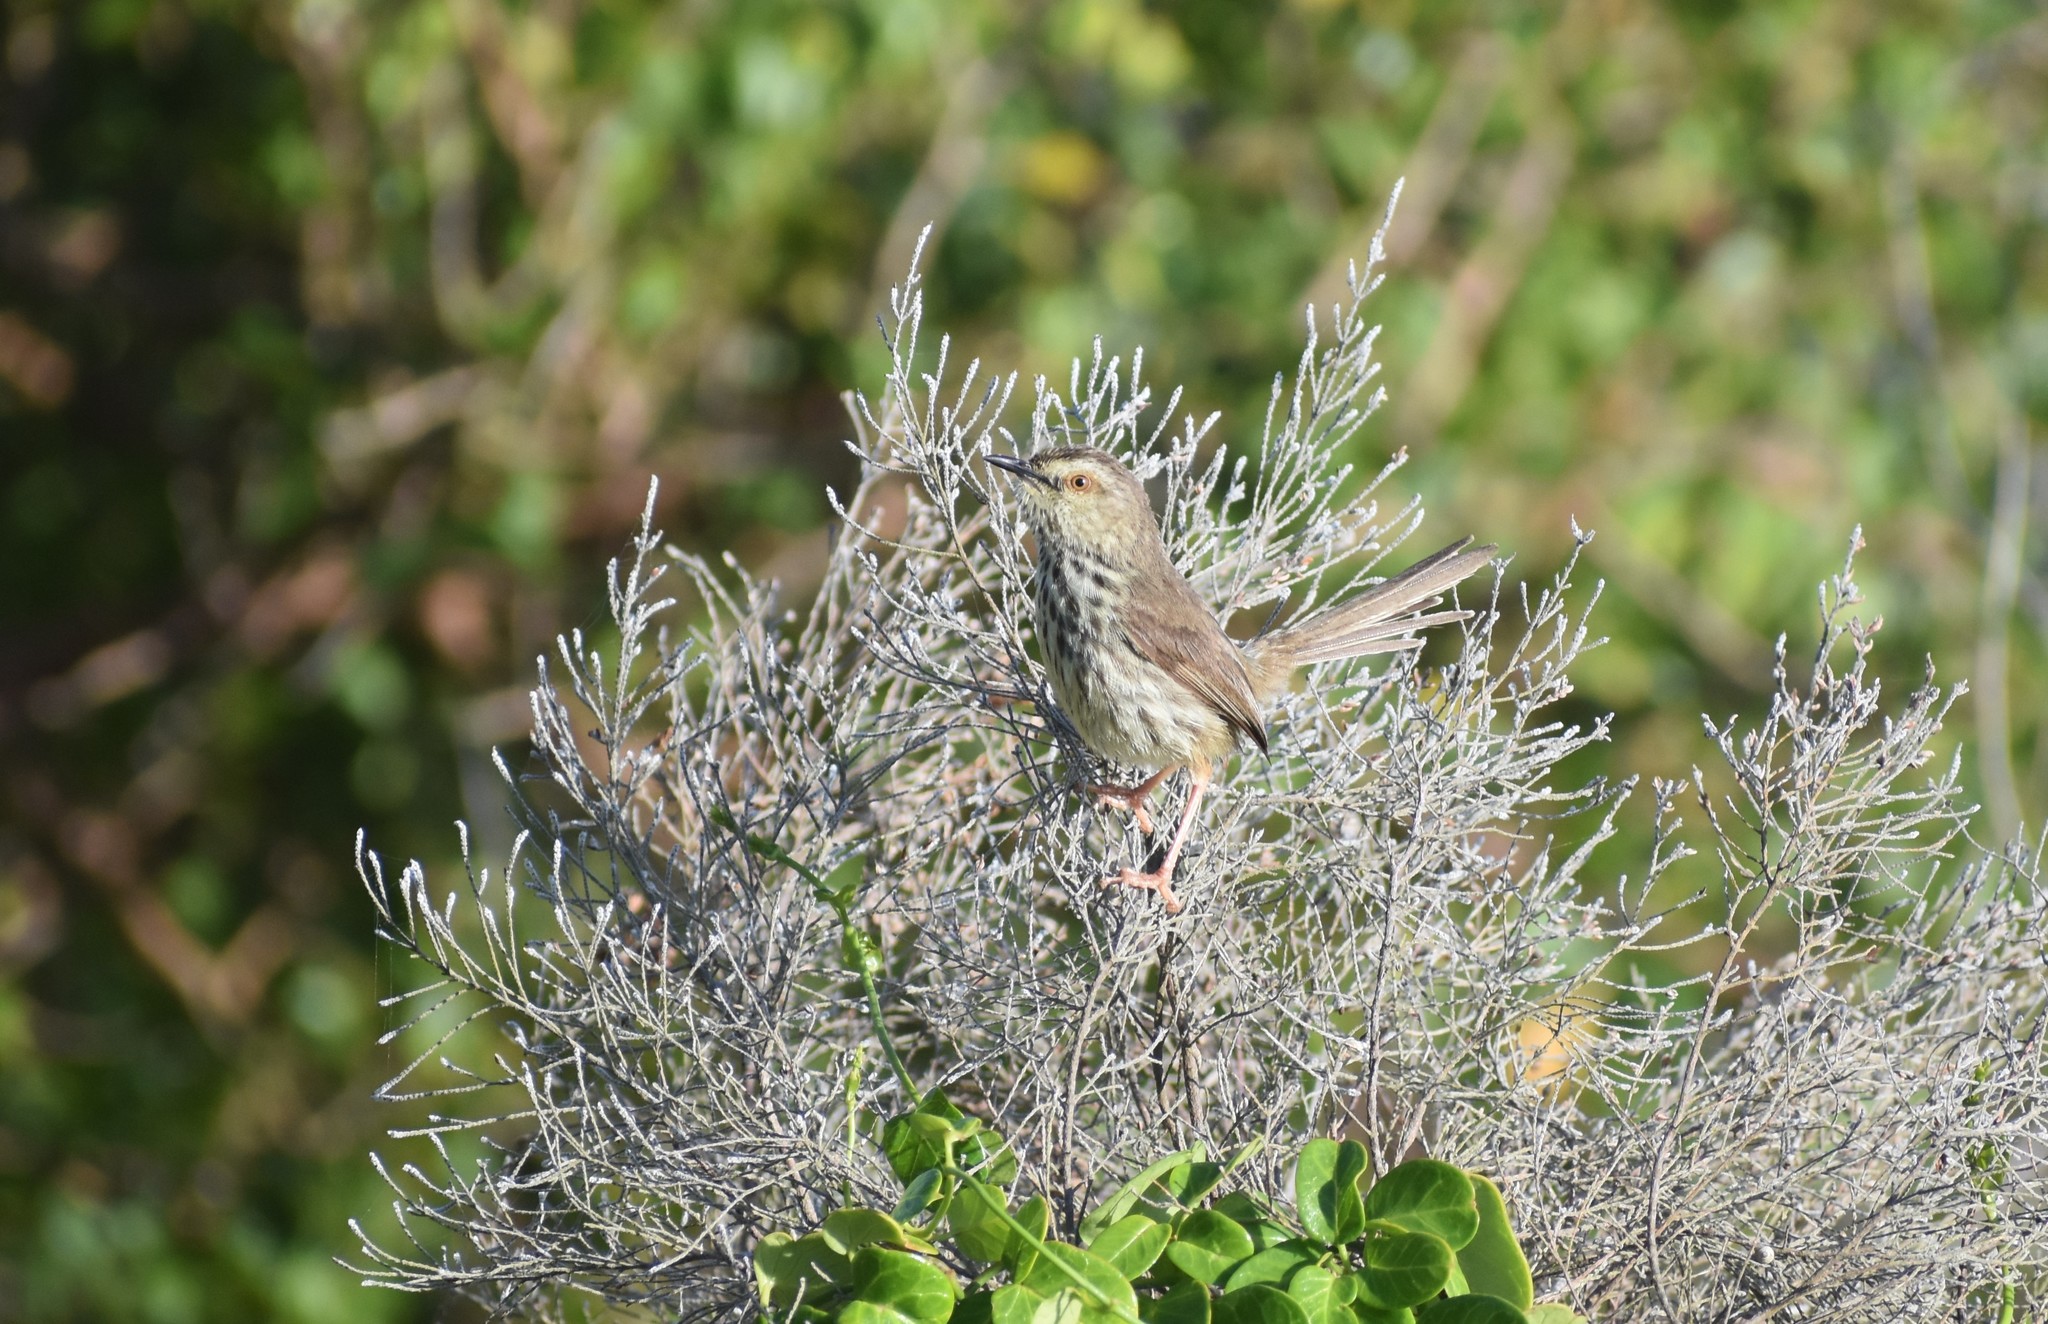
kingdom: Animalia
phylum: Chordata
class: Aves
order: Passeriformes
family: Cisticolidae
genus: Prinia
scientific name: Prinia maculosa
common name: Karoo prinia
